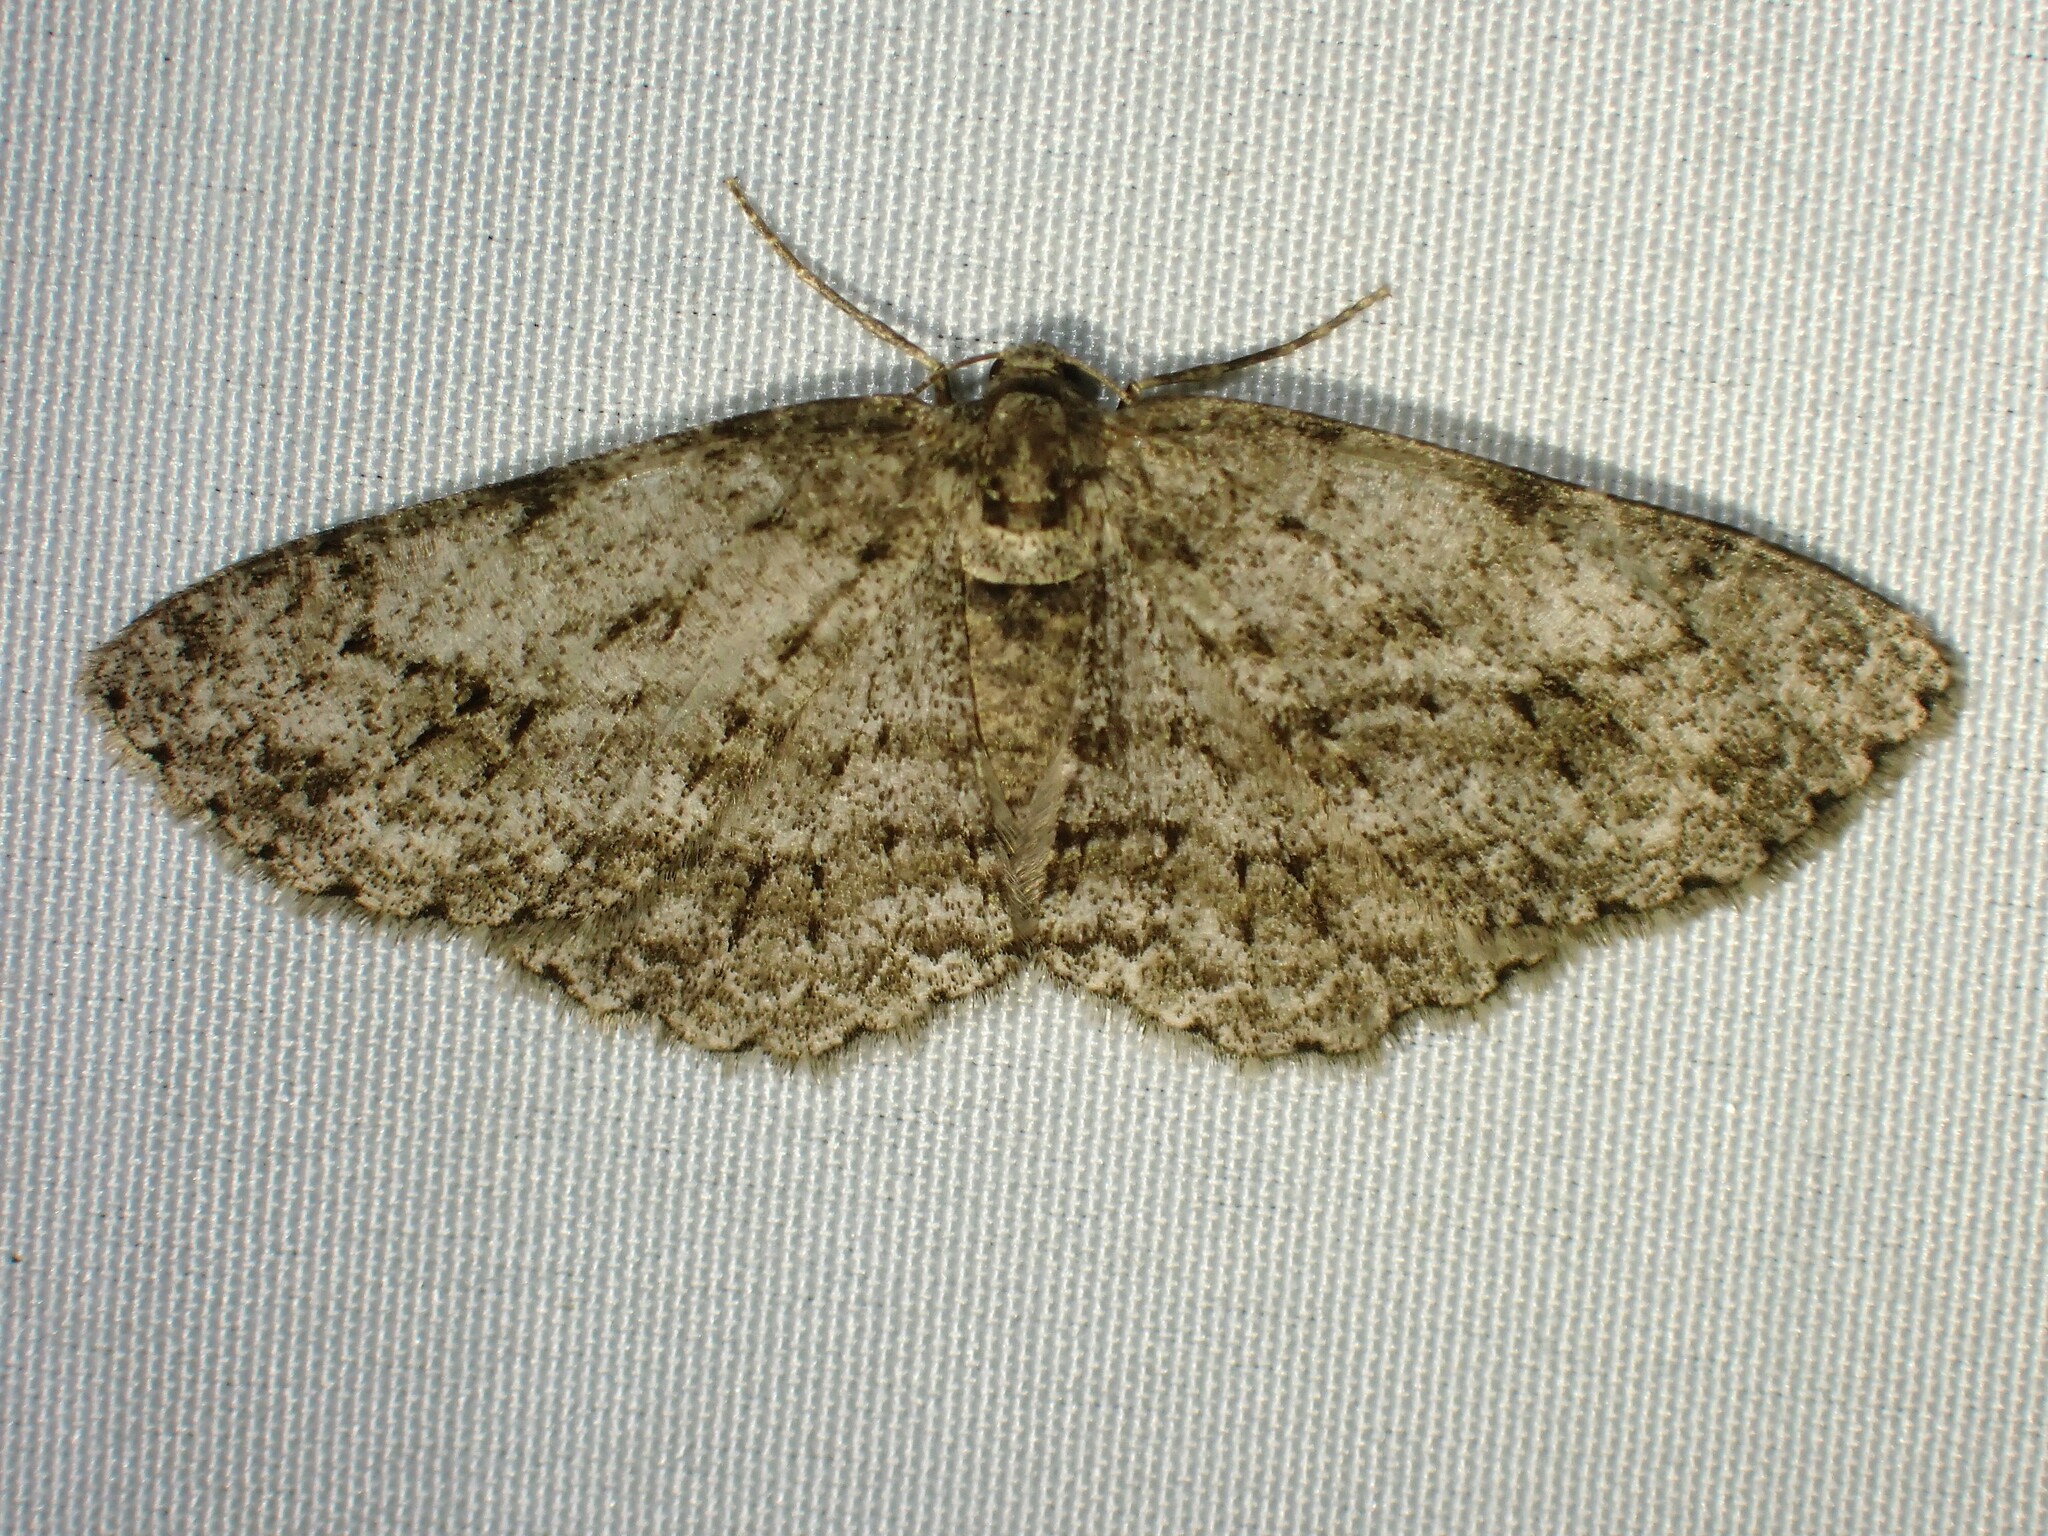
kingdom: Animalia
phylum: Arthropoda
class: Insecta
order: Lepidoptera
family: Geometridae
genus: Ectropis
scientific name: Ectropis crepuscularia
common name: Engrailed
